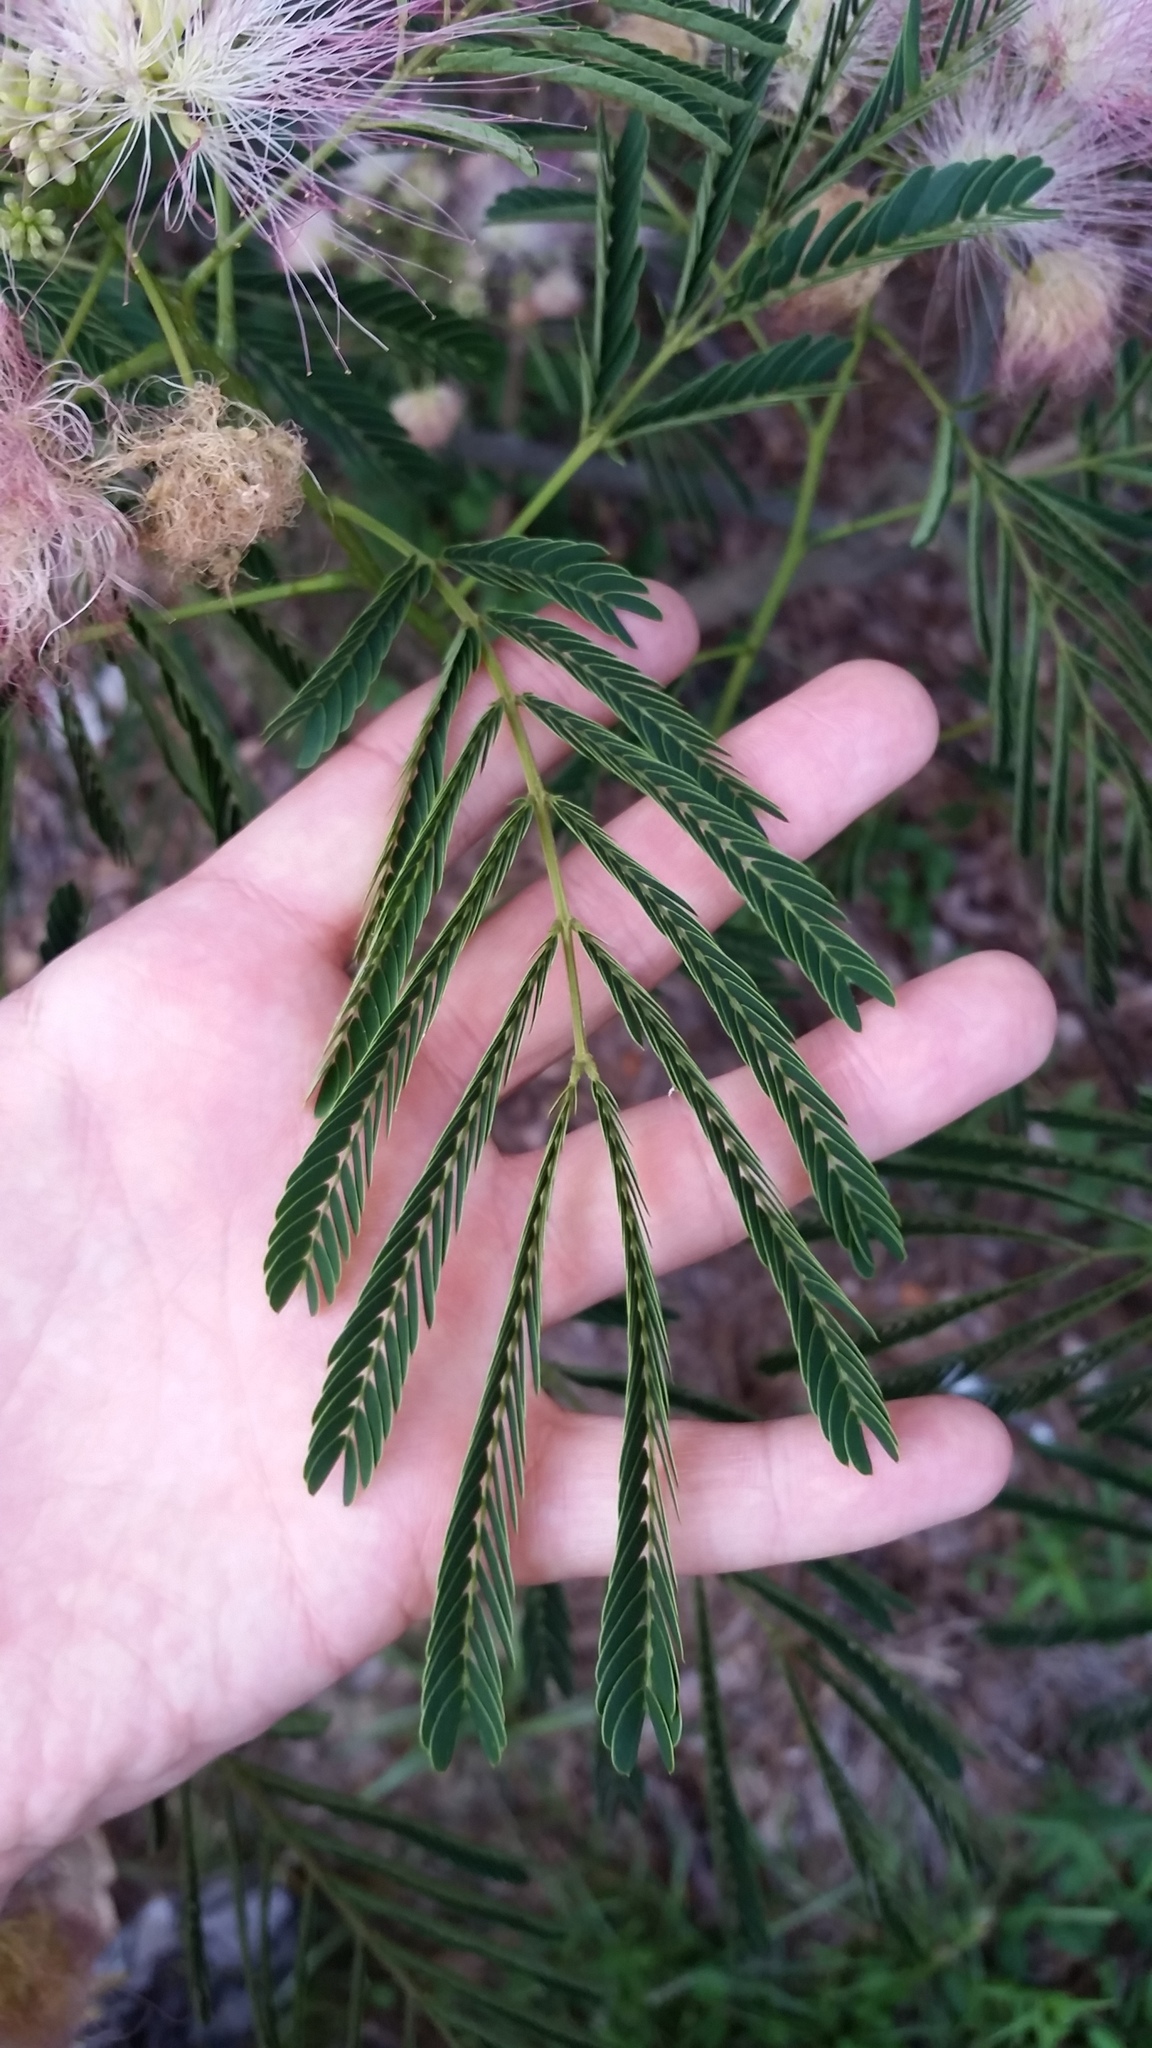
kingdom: Plantae
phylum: Tracheophyta
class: Magnoliopsida
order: Fabales
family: Fabaceae
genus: Albizia
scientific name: Albizia julibrissin
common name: Silktree
